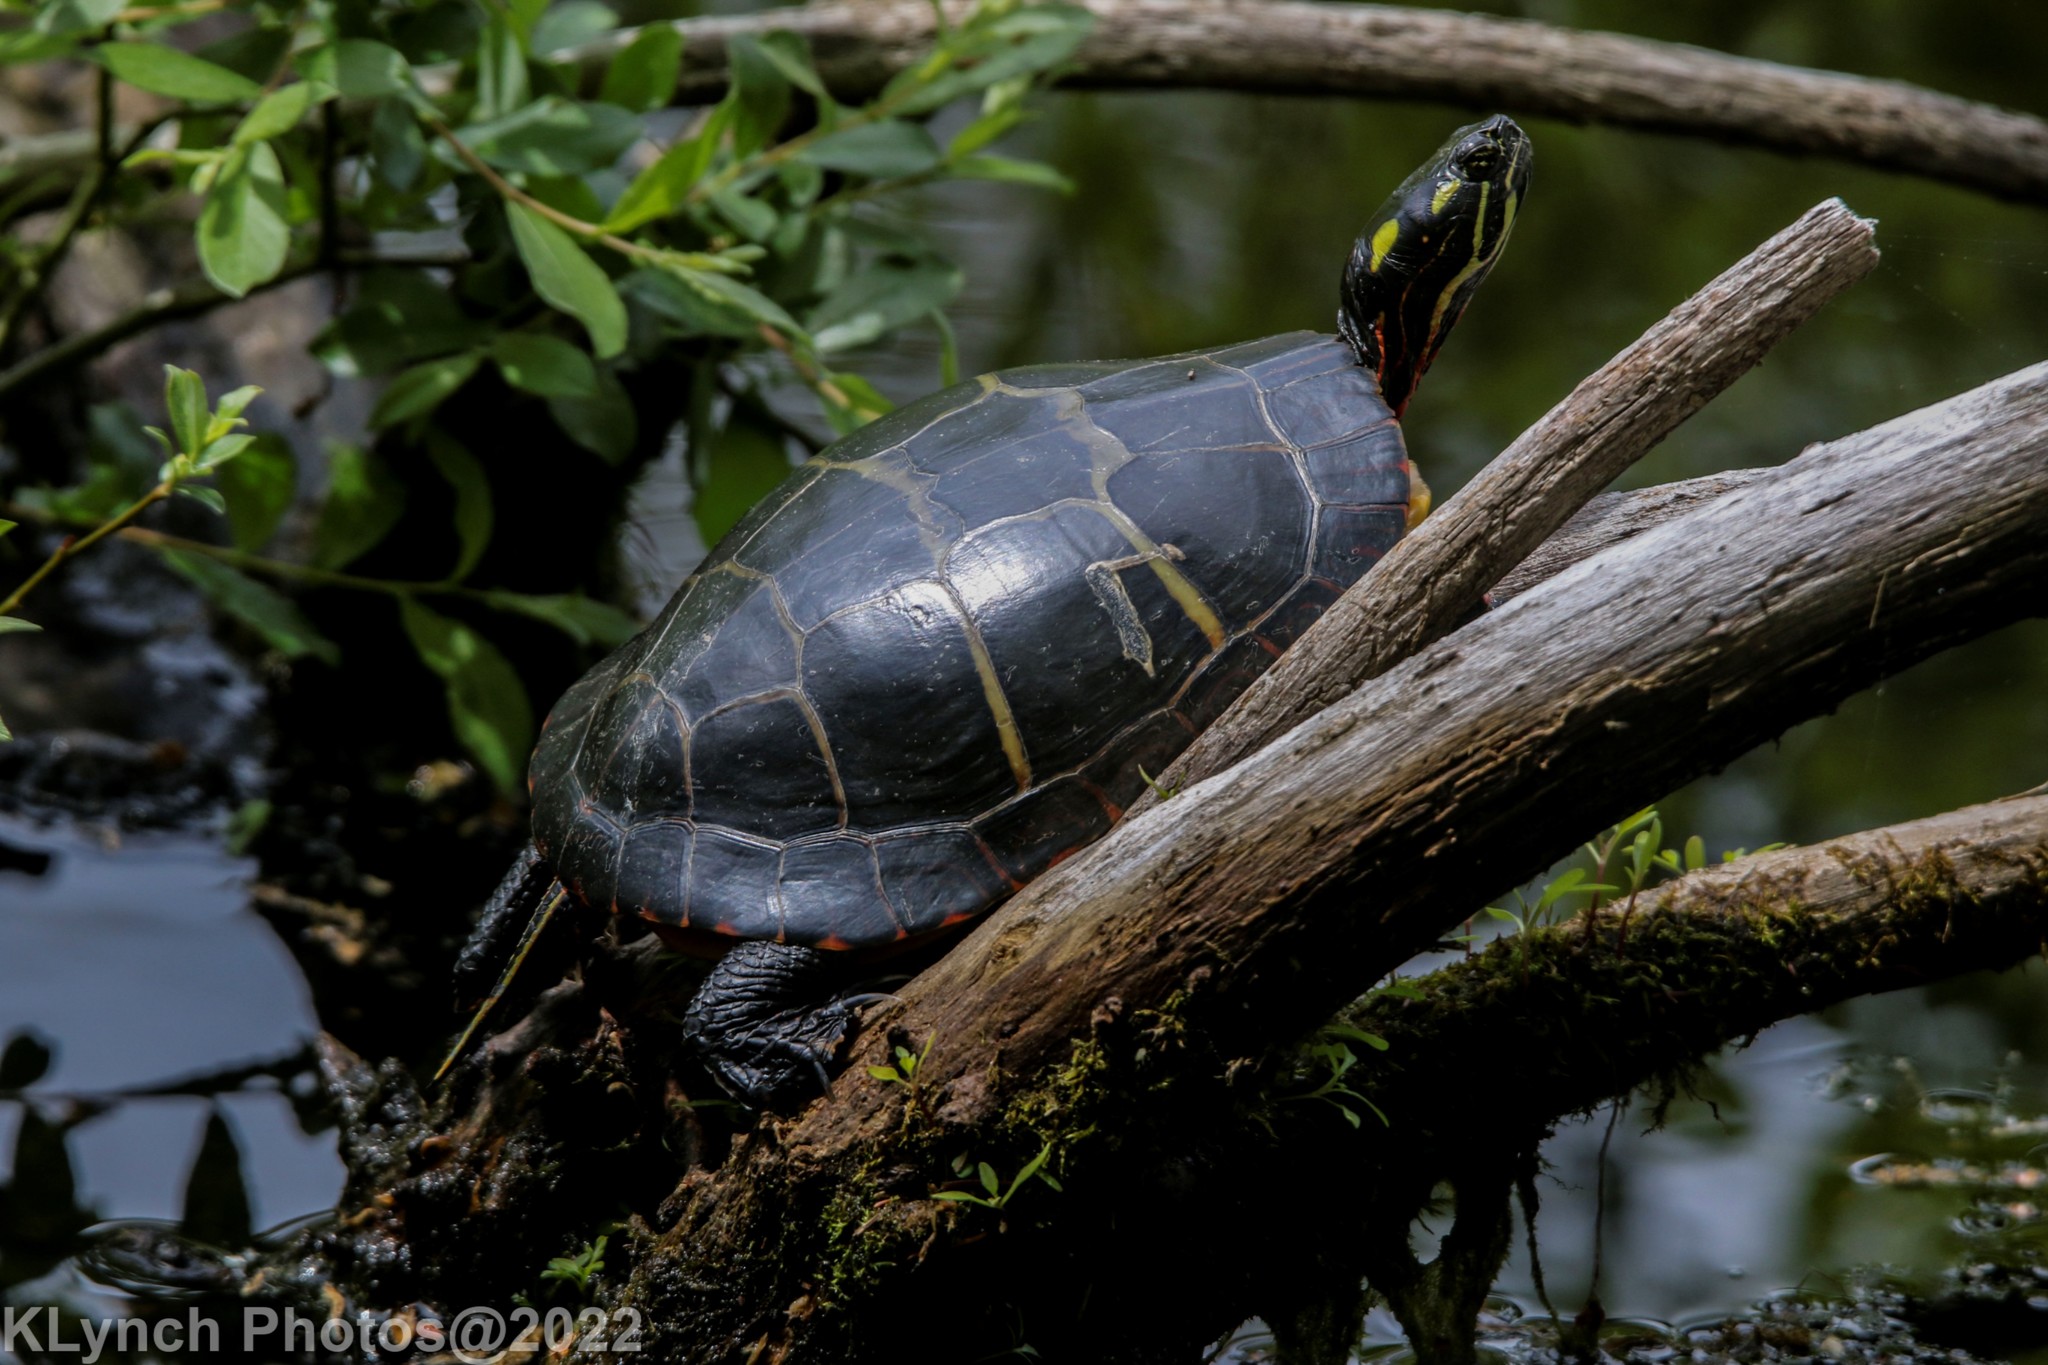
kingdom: Animalia
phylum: Chordata
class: Testudines
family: Emydidae
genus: Chrysemys
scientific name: Chrysemys picta
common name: Painted turtle
